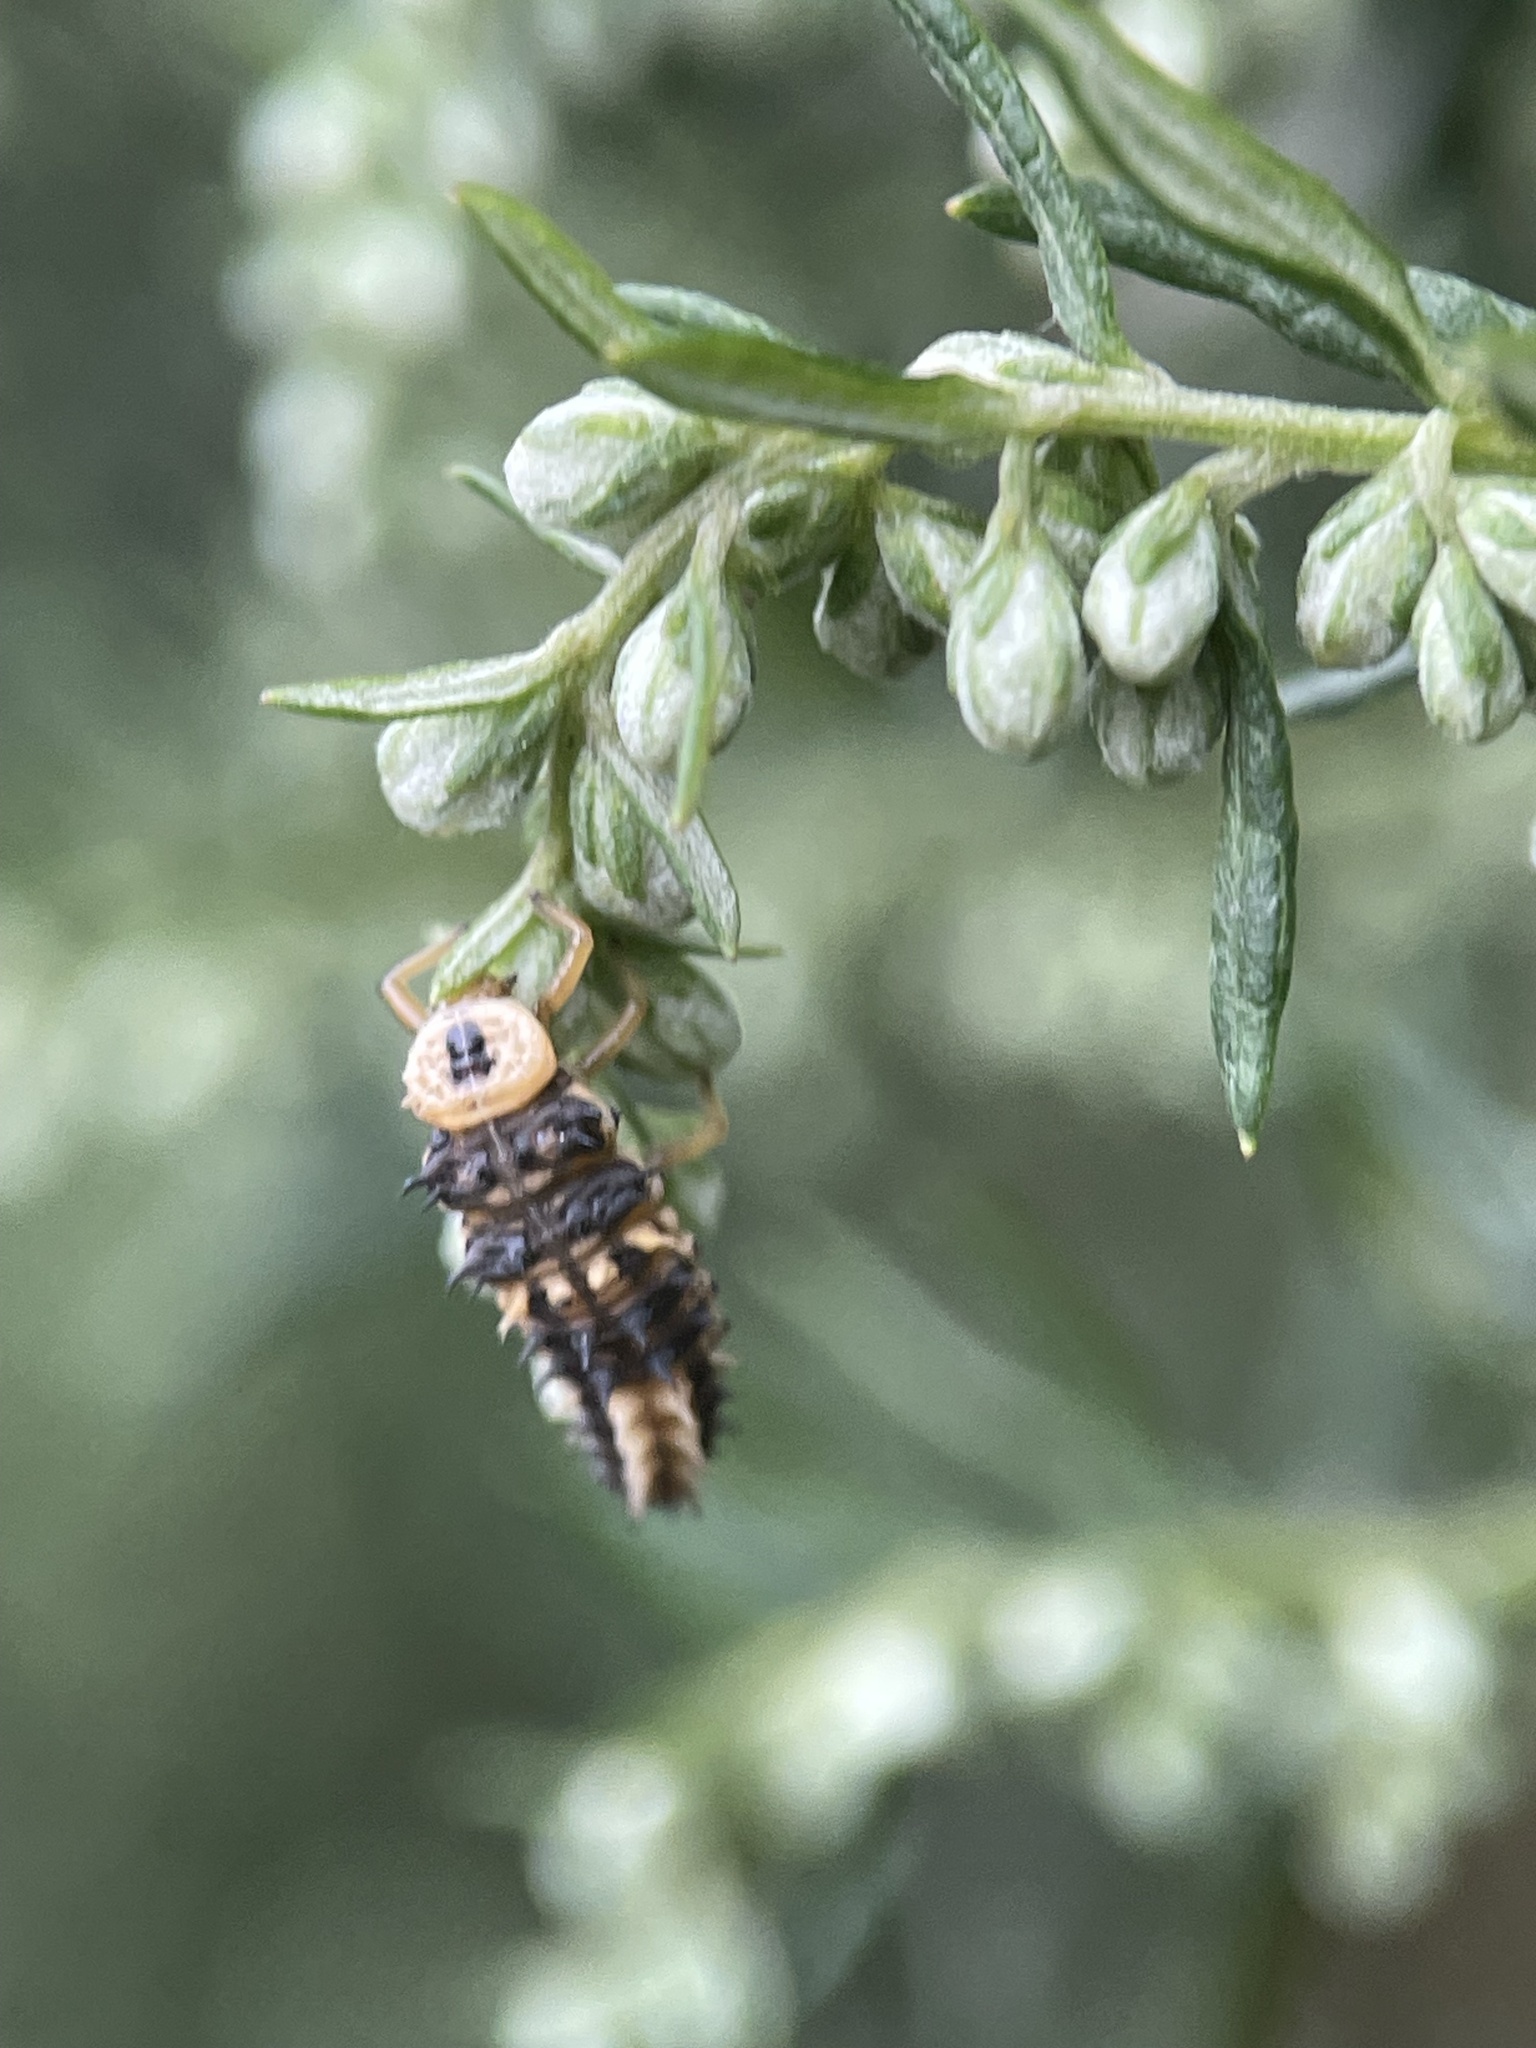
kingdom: Animalia
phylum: Arthropoda
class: Insecta
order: Coleoptera
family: Coccinellidae
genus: Harmonia
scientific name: Harmonia
